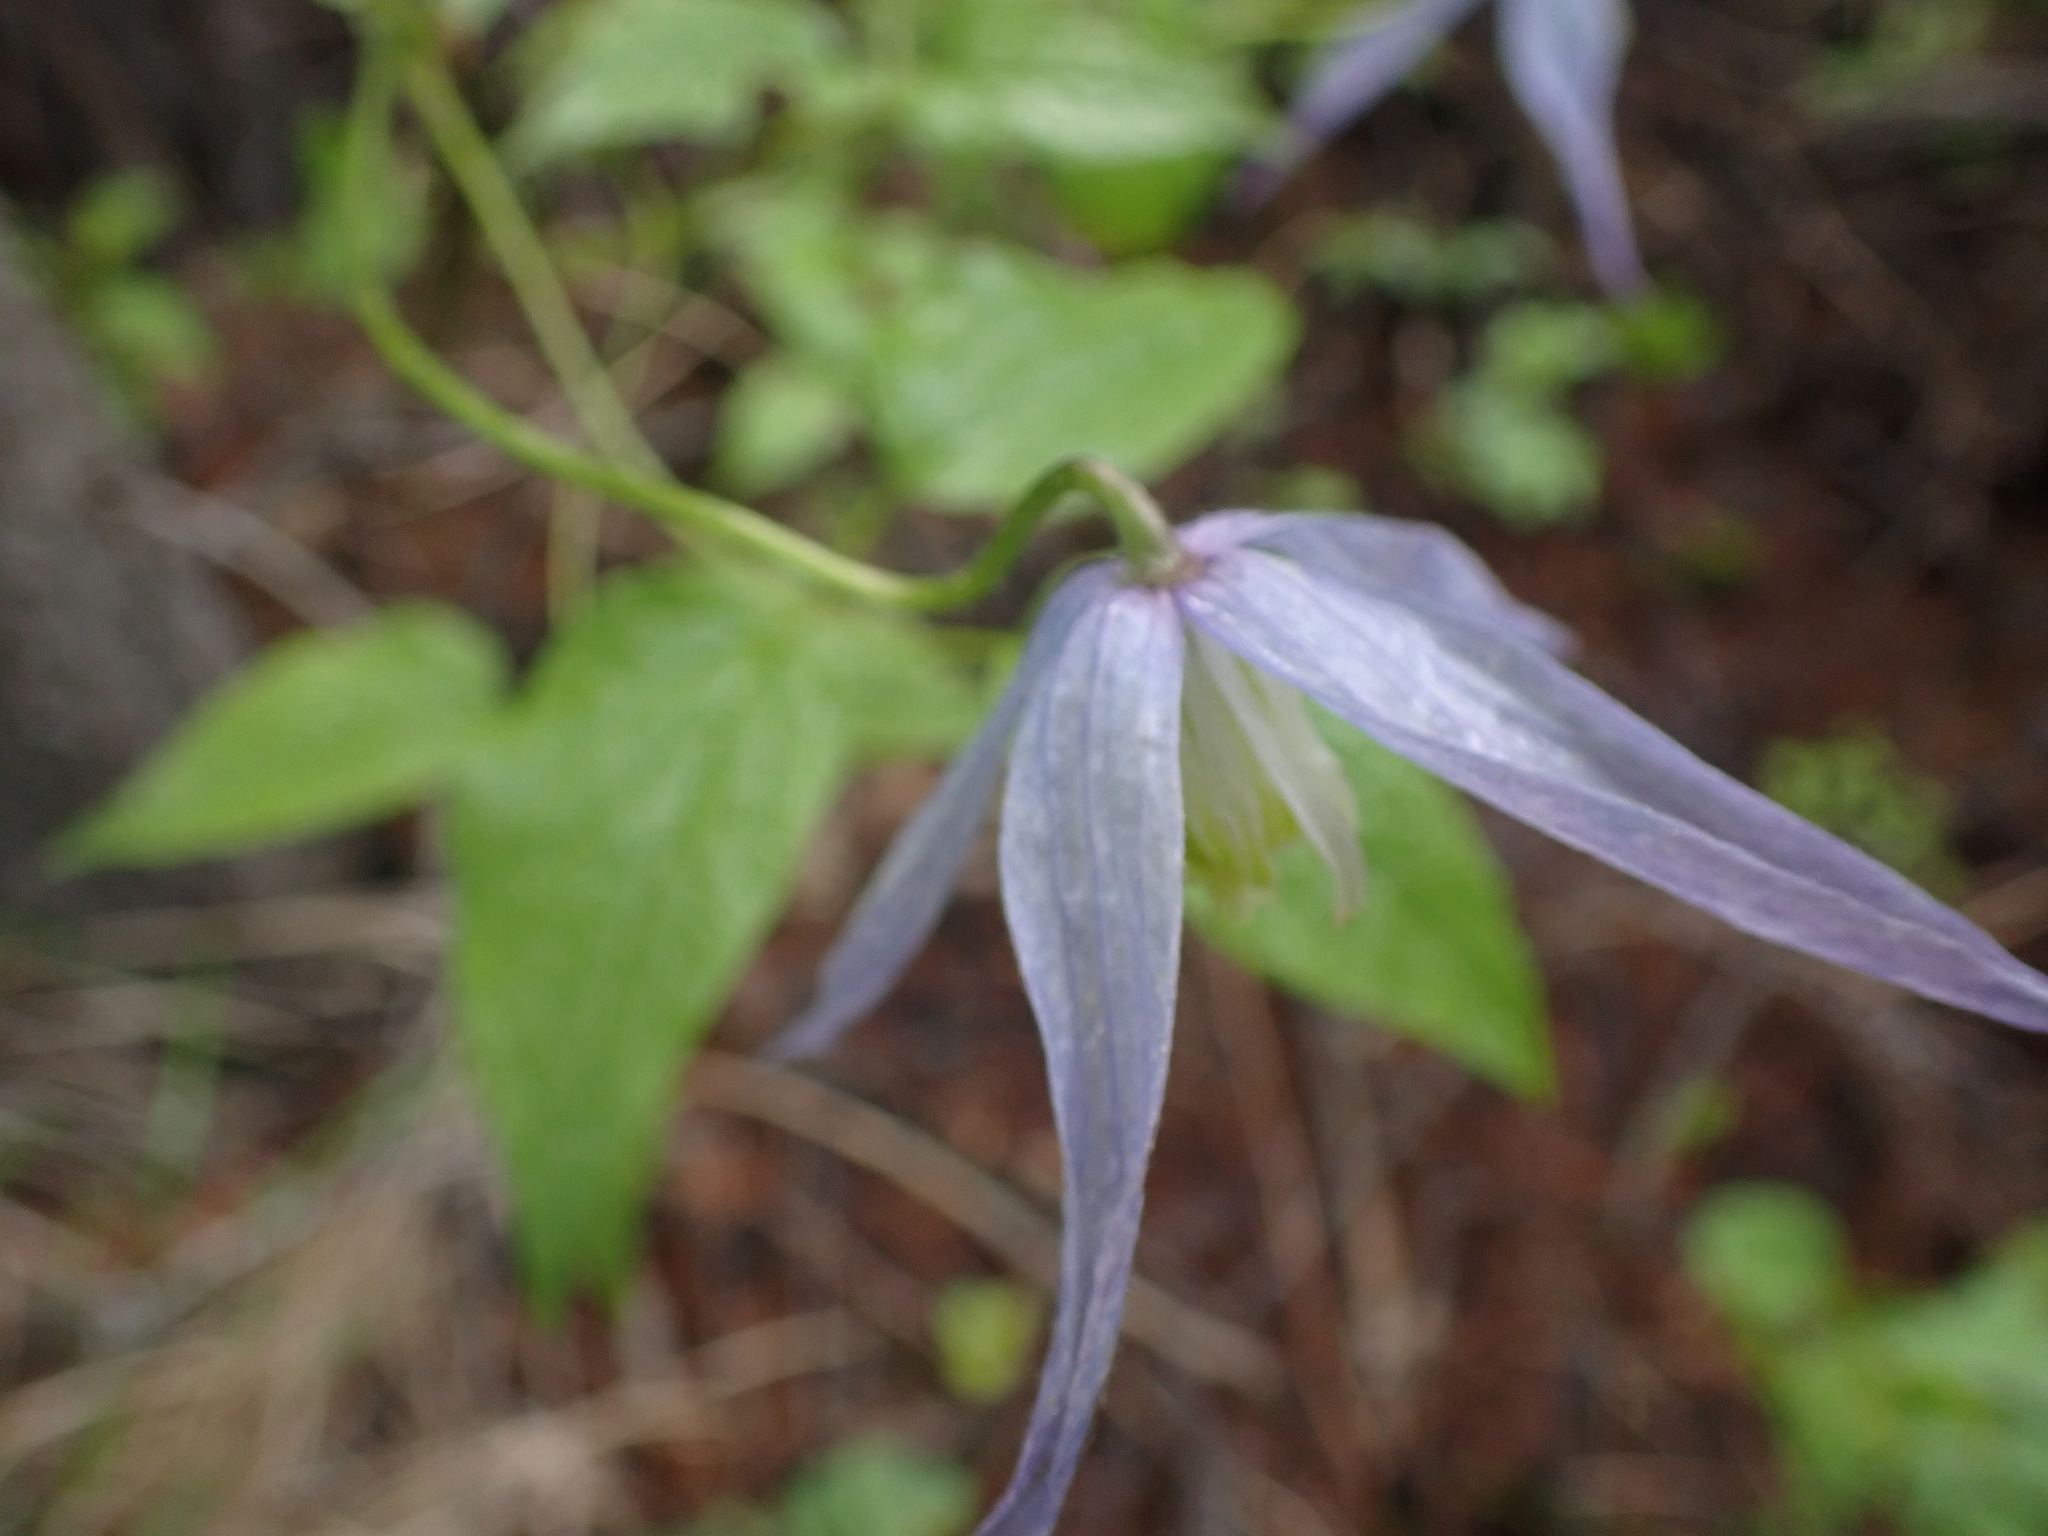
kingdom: Plantae
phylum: Tracheophyta
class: Magnoliopsida
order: Ranunculales
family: Ranunculaceae
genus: Clematis
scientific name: Clematis occidentalis
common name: Purple clematis
